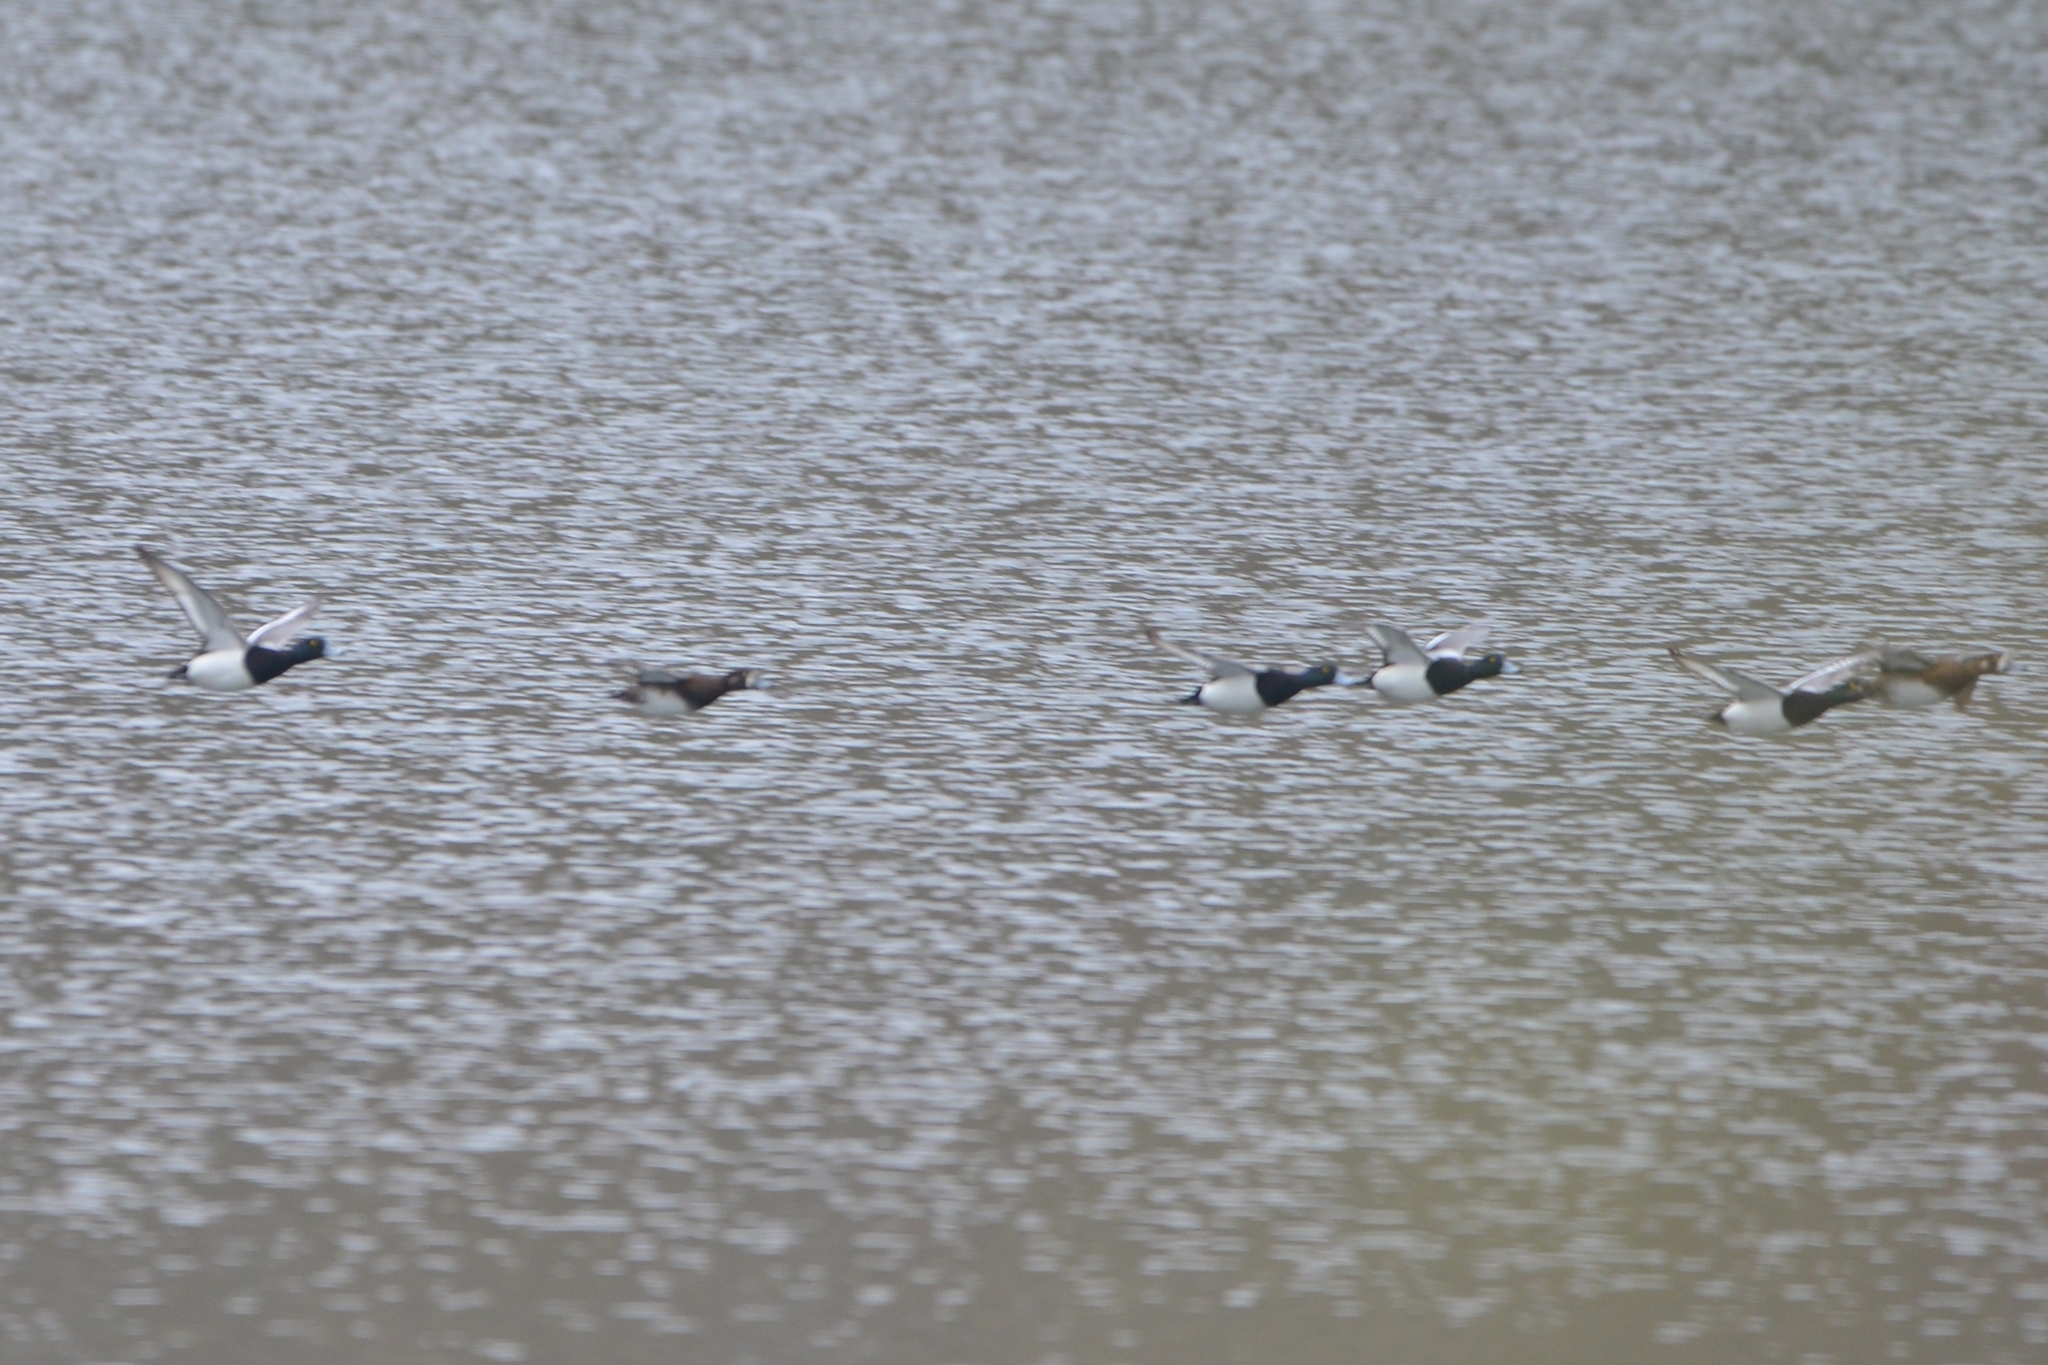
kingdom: Animalia
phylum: Chordata
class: Aves
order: Anseriformes
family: Anatidae
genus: Aythya
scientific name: Aythya marila
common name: Greater scaup
